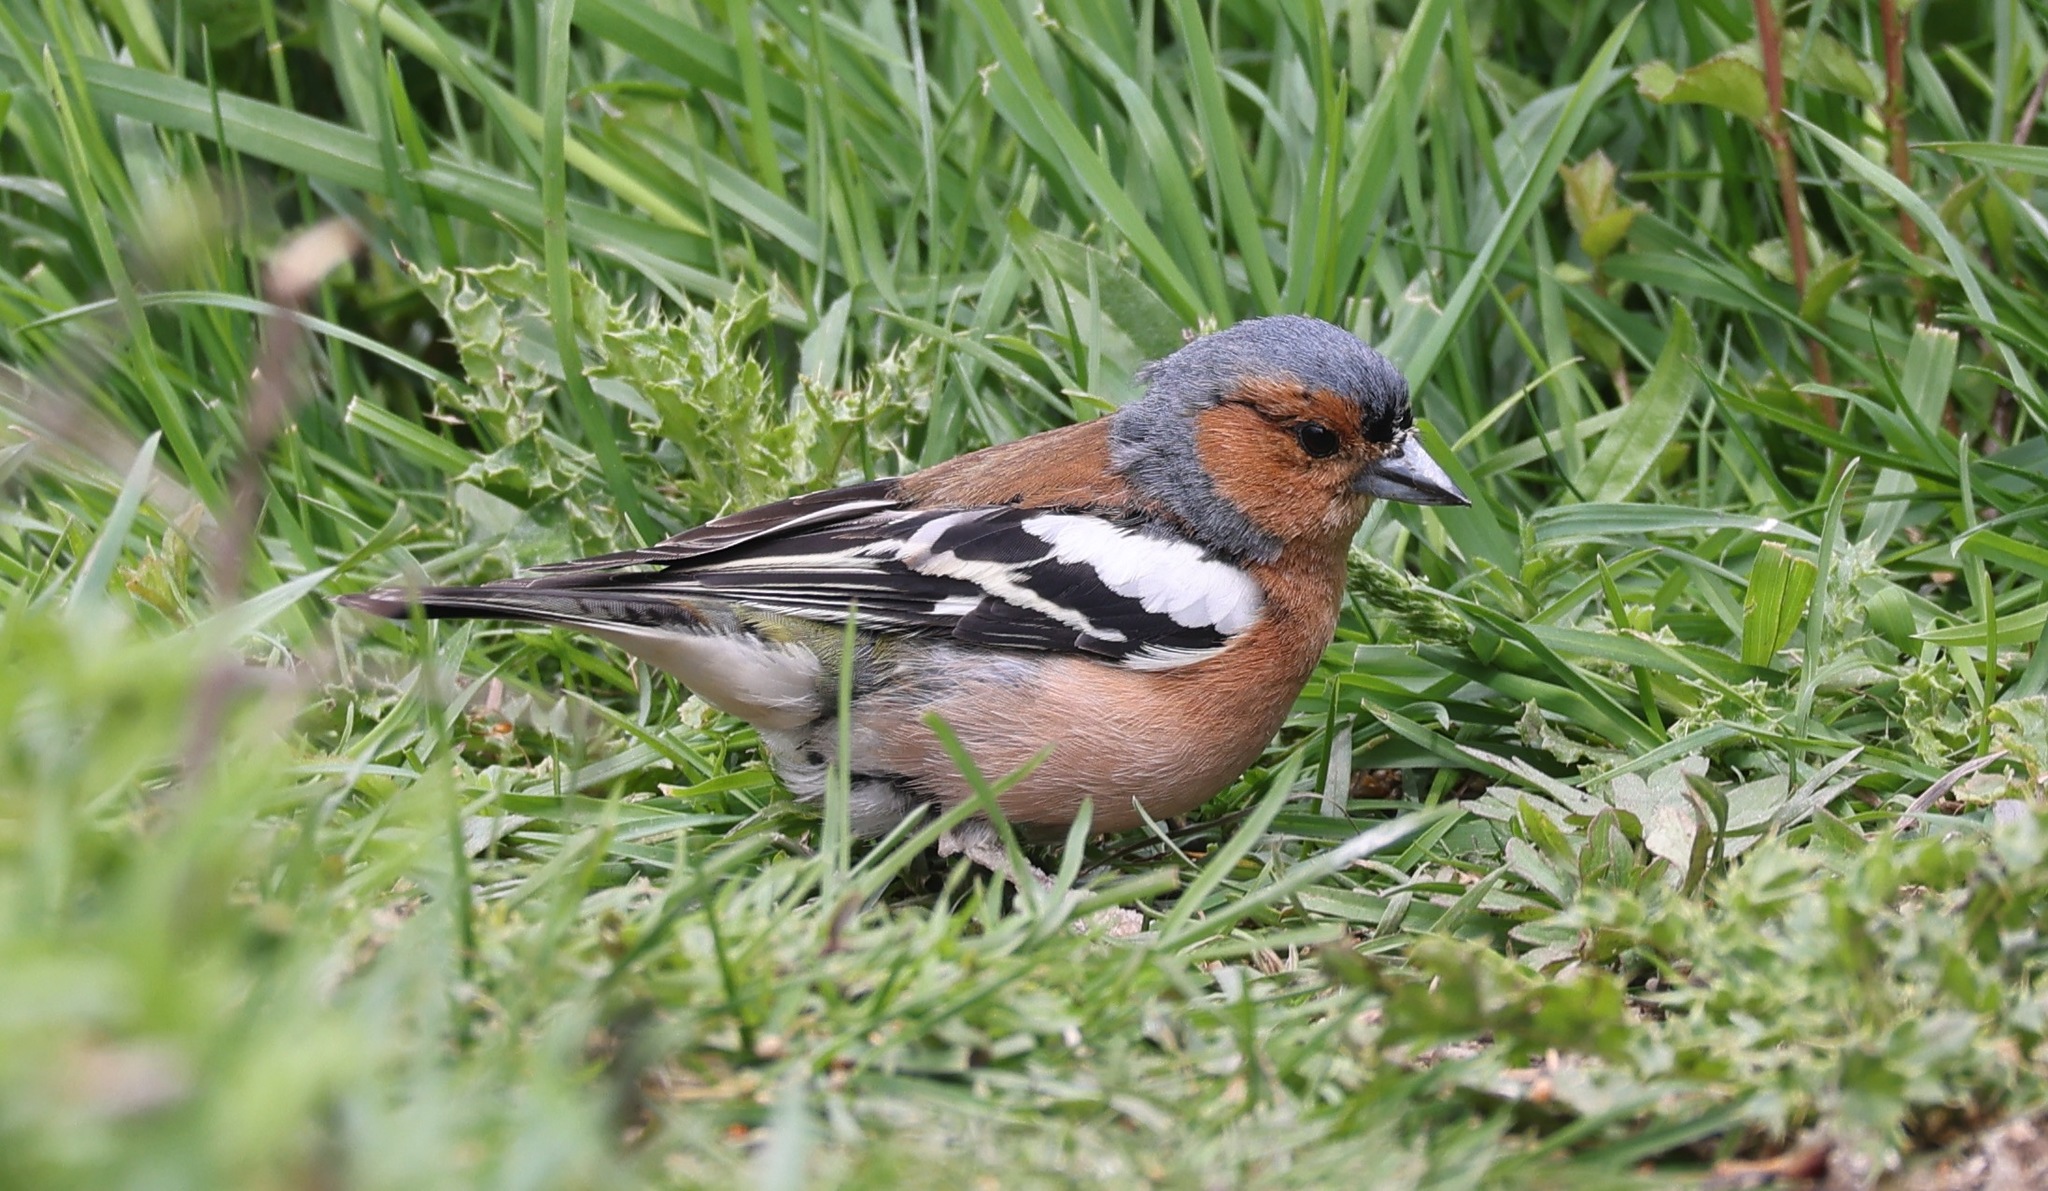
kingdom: Animalia
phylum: Chordata
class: Aves
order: Passeriformes
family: Fringillidae
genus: Fringilla
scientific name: Fringilla coelebs
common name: Common chaffinch
